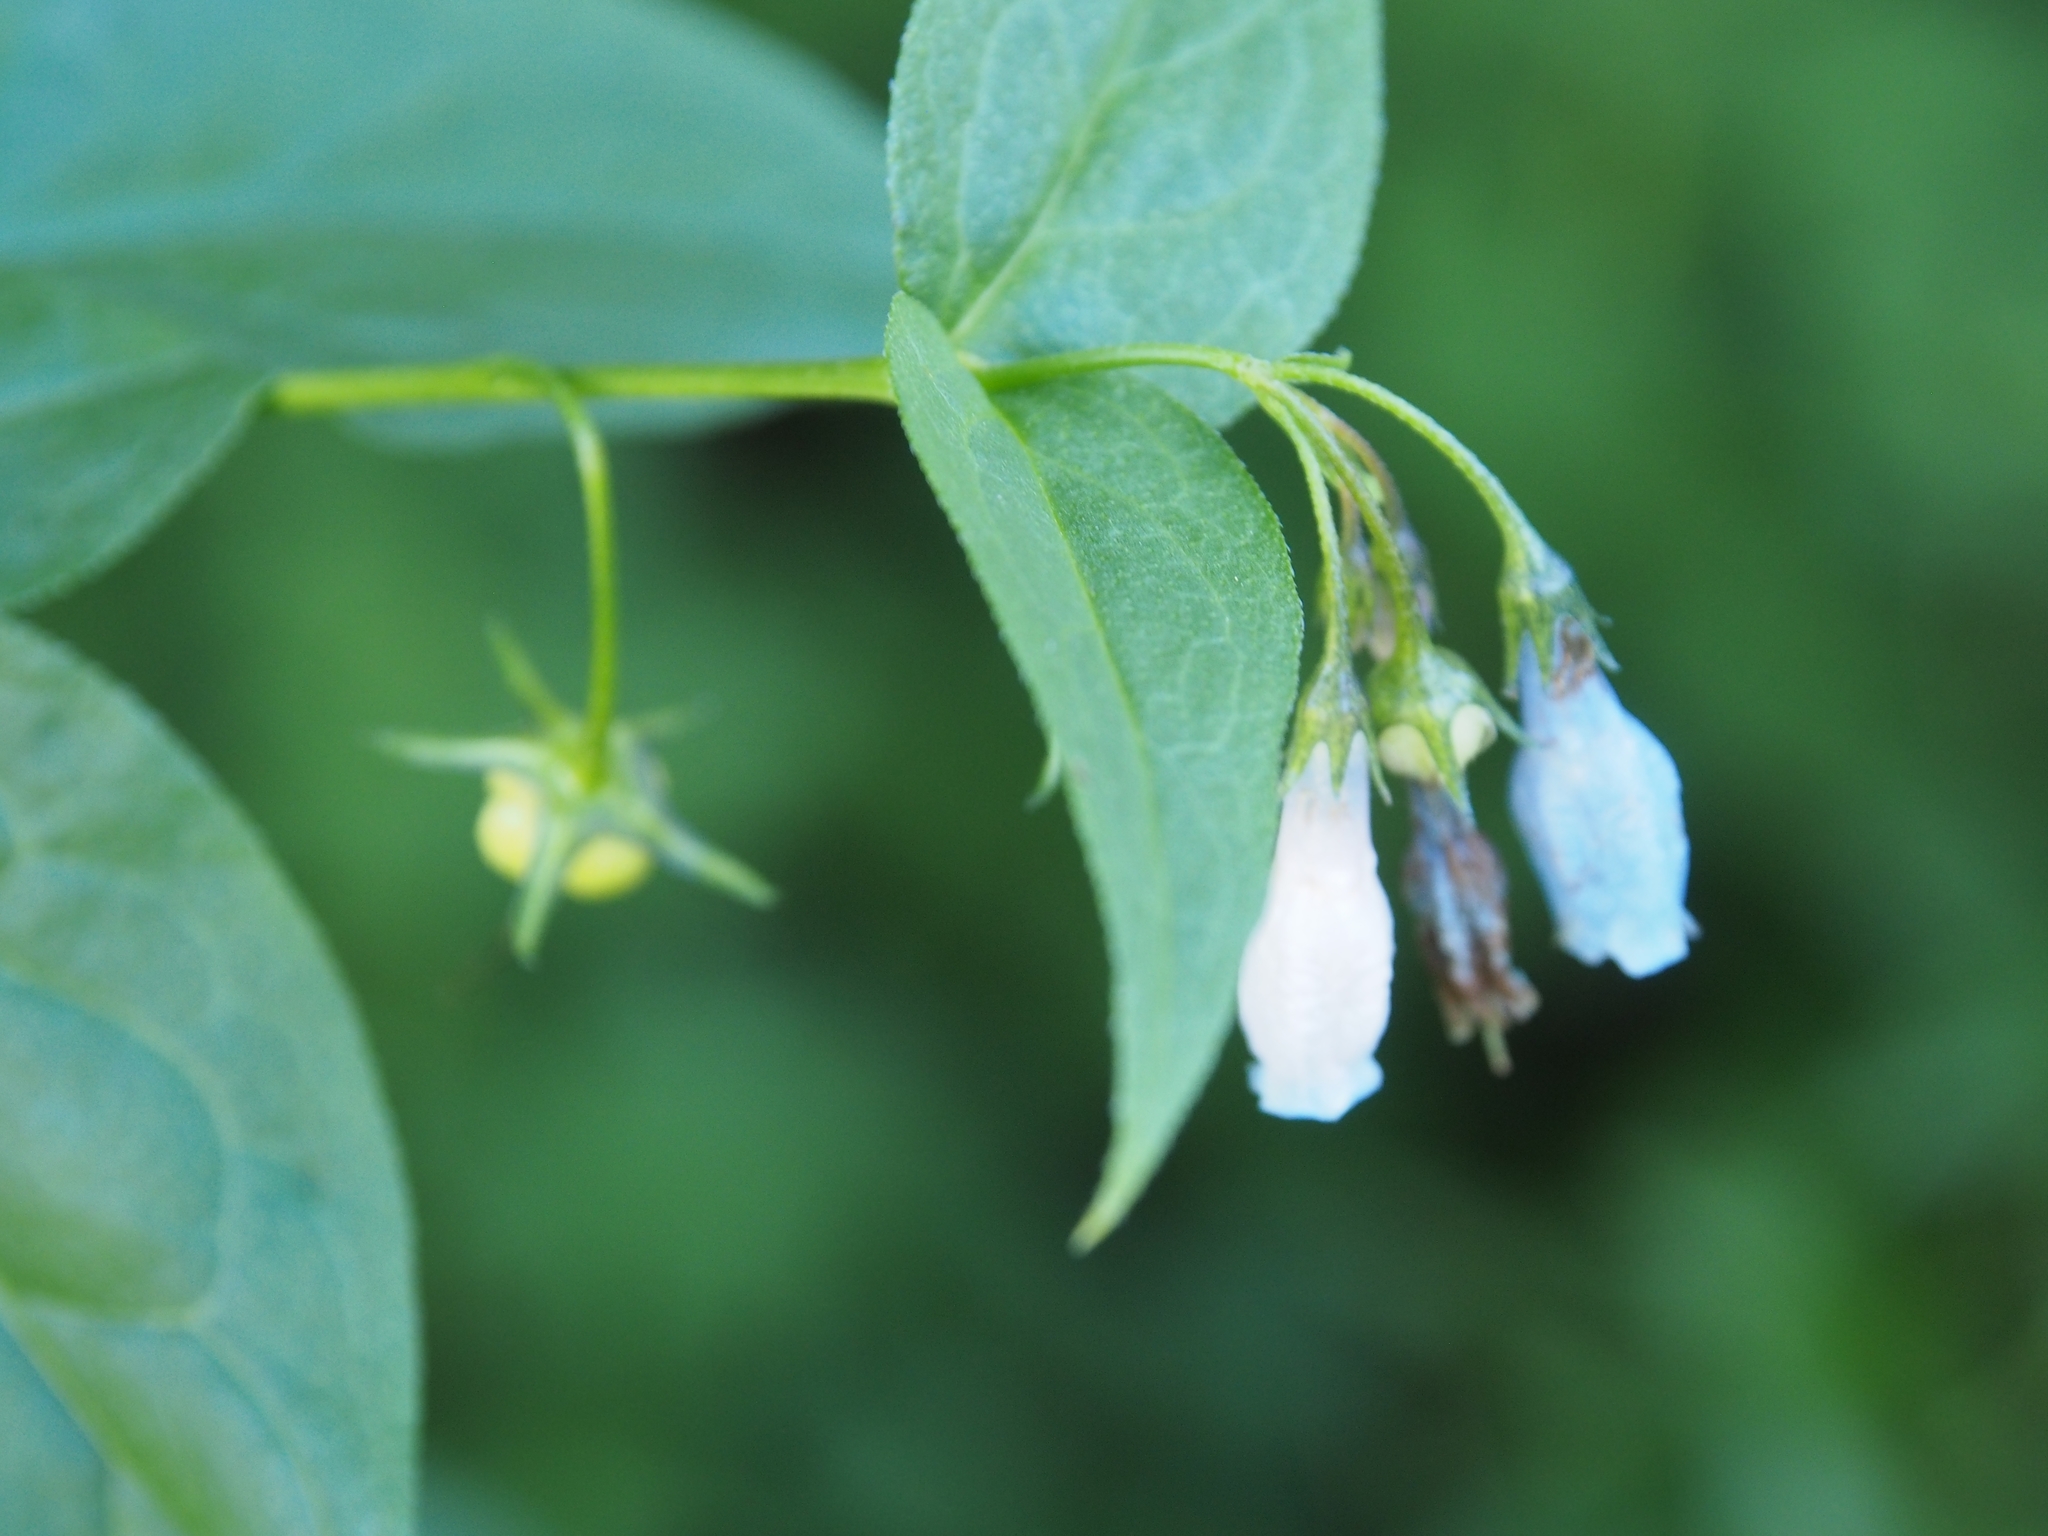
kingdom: Plantae
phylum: Tracheophyta
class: Magnoliopsida
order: Boraginales
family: Boraginaceae
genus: Mertensia
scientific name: Mertensia ciliata
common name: Tall chiming-bells
